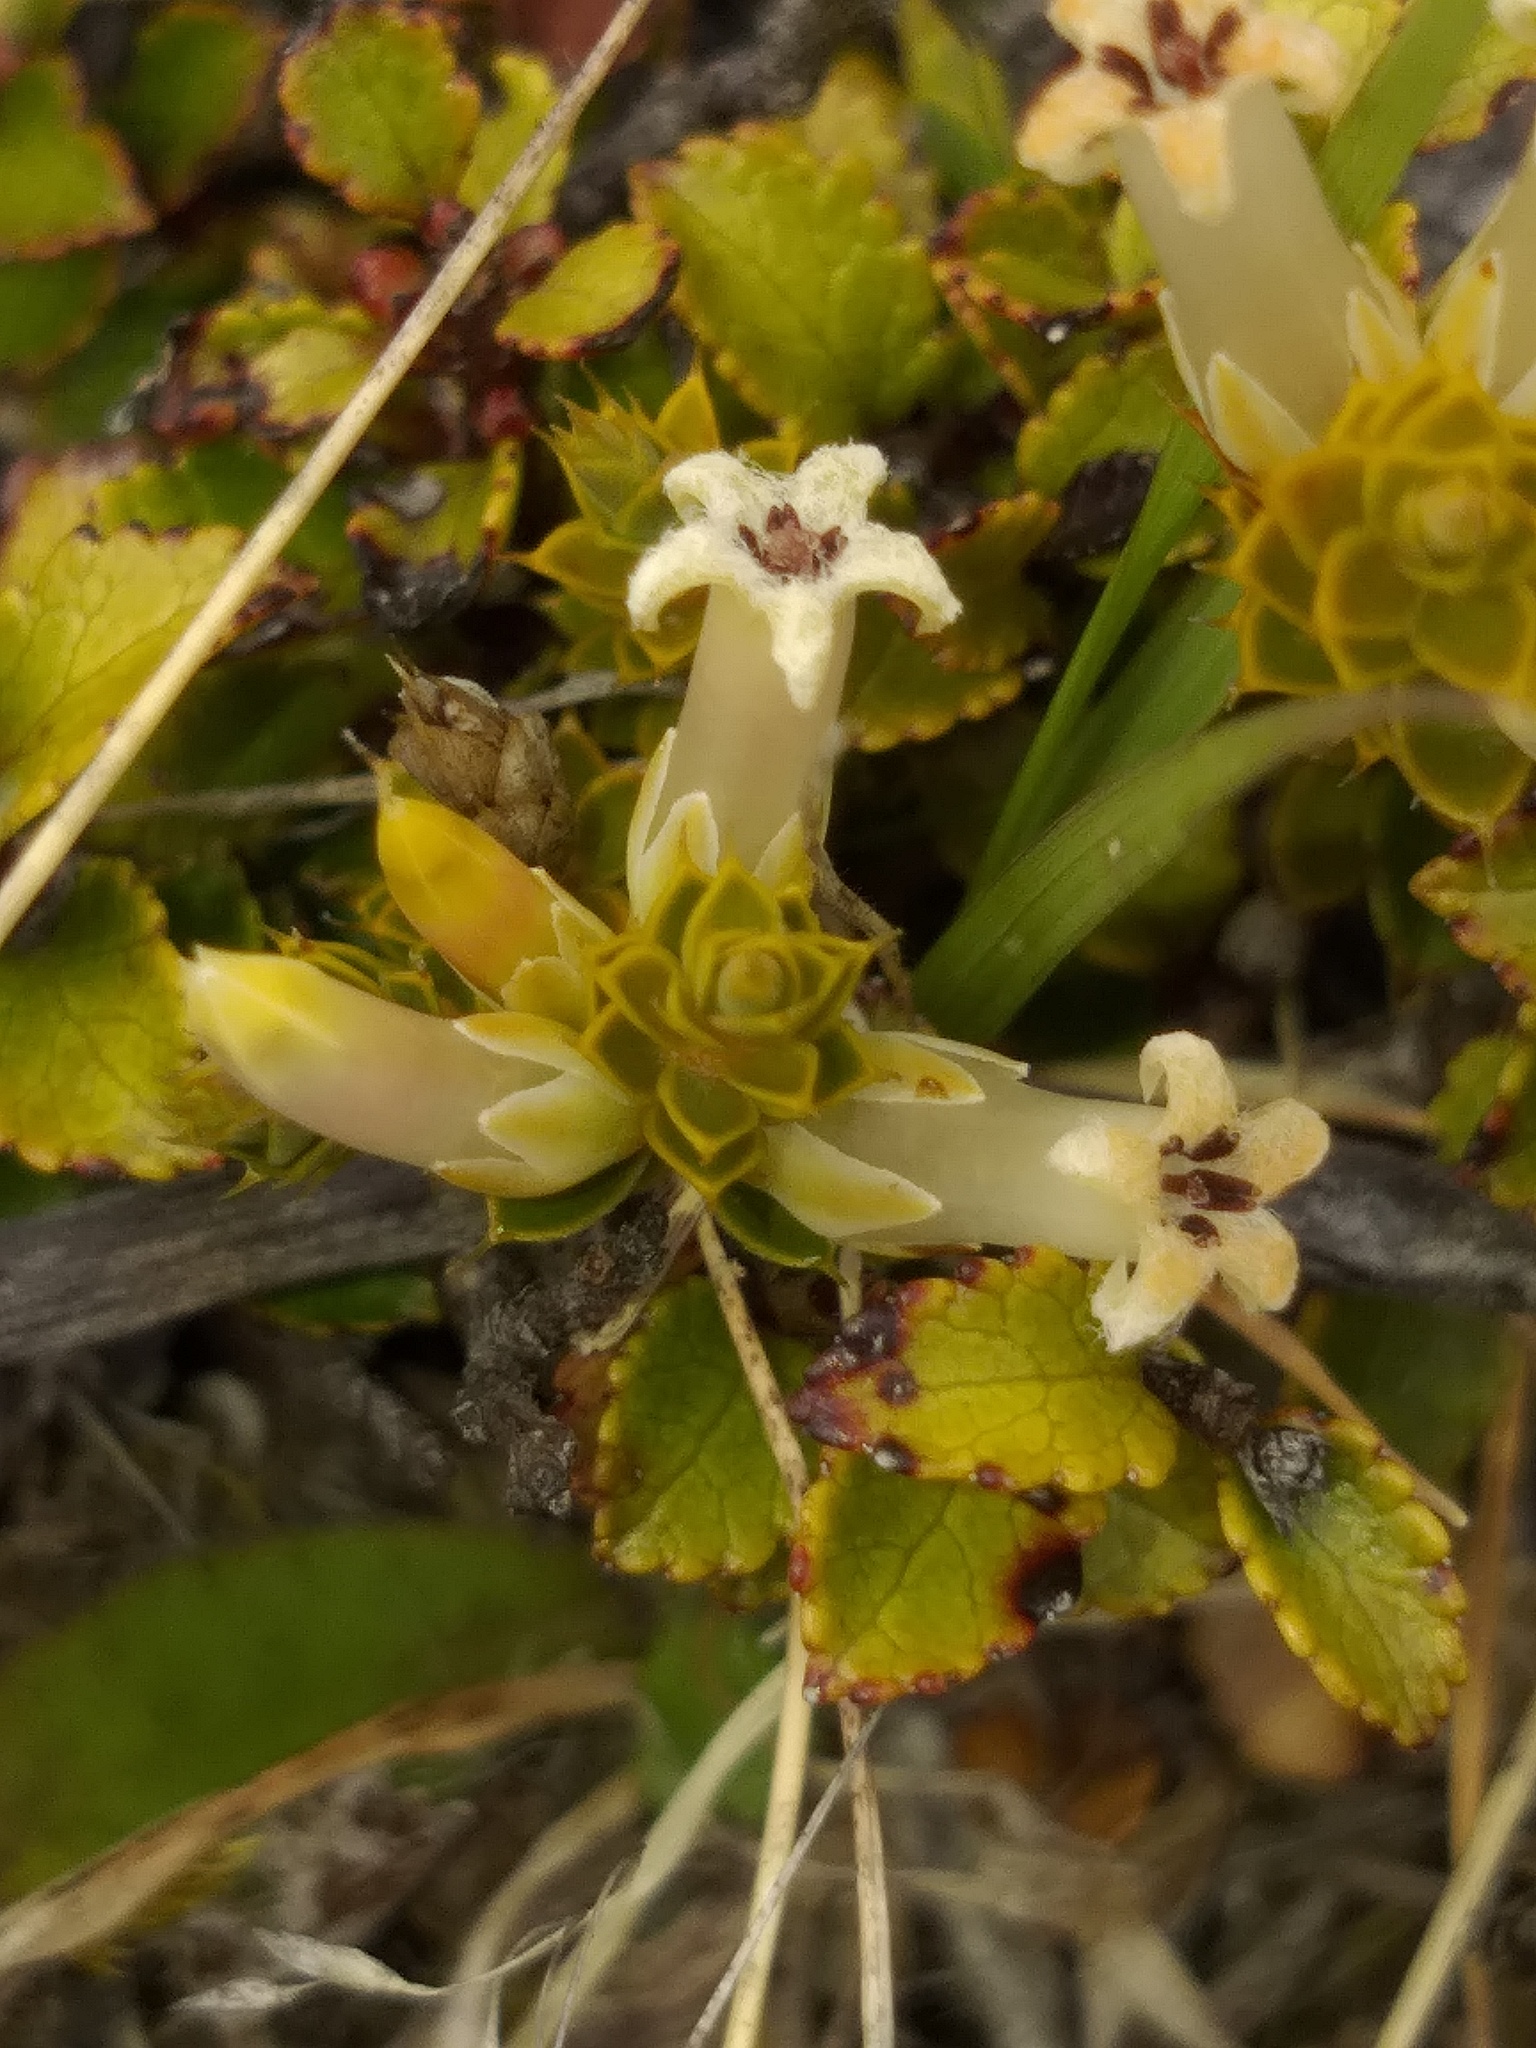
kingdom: Plantae
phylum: Tracheophyta
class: Magnoliopsida
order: Ericales
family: Ericaceae
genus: Styphelia
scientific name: Styphelia nesophila
